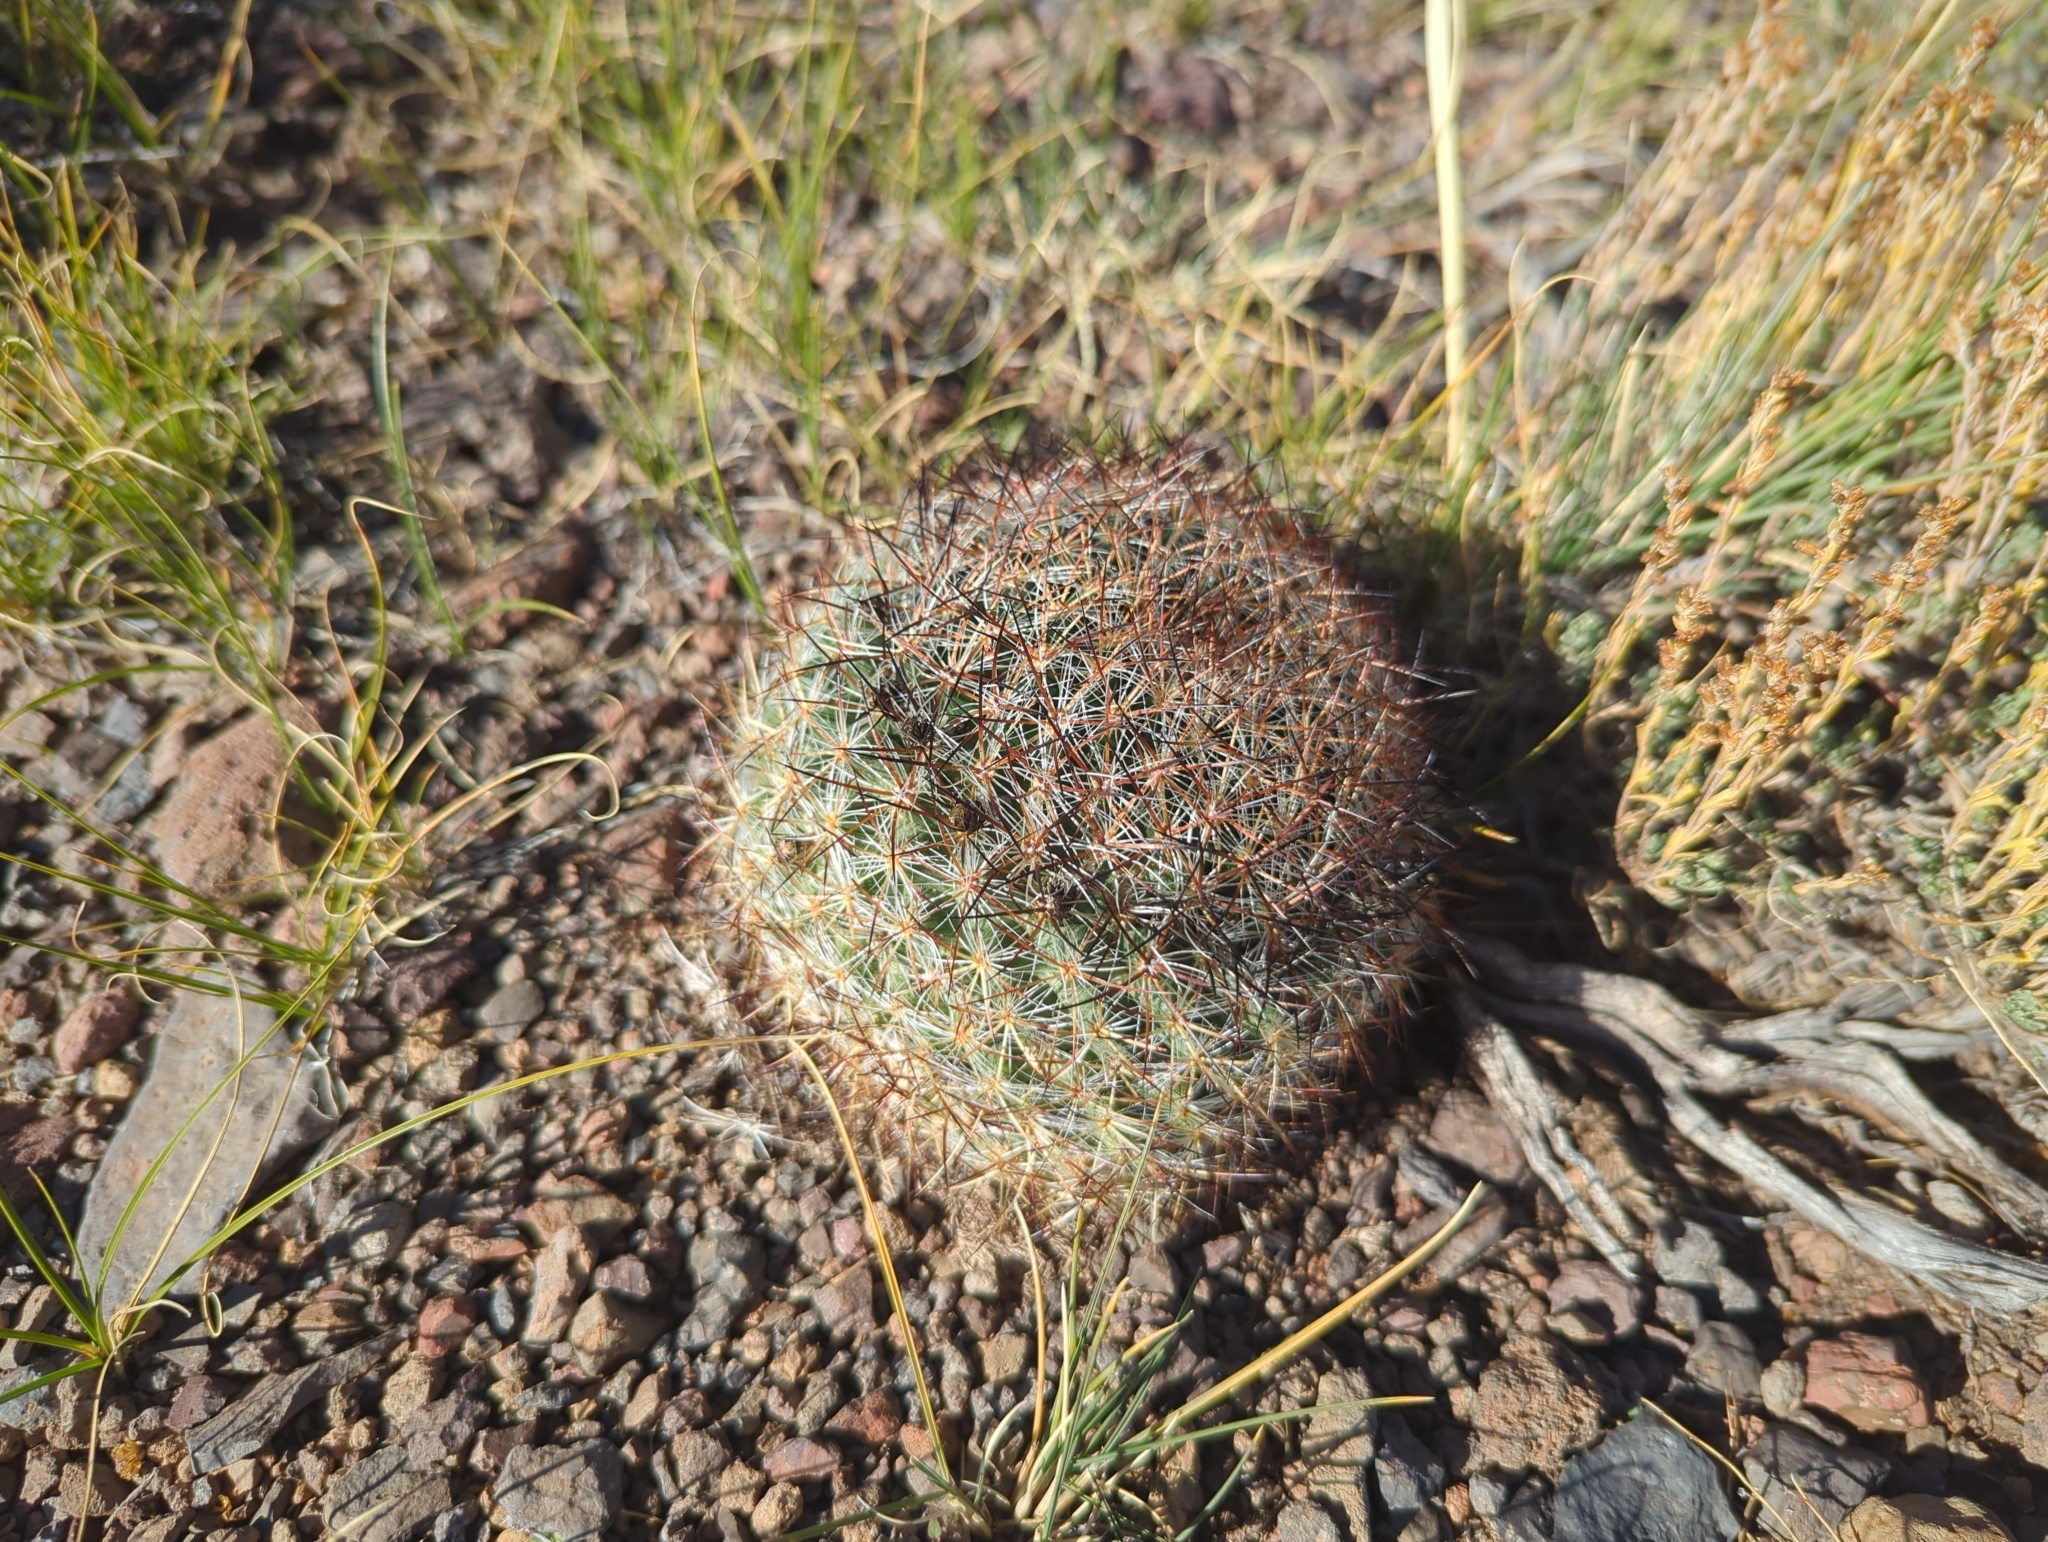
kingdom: Plantae
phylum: Tracheophyta
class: Magnoliopsida
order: Caryophyllales
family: Cactaceae
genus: Pediocactus
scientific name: Pediocactus simpsonii
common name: Simpson's hedgehog cactus
